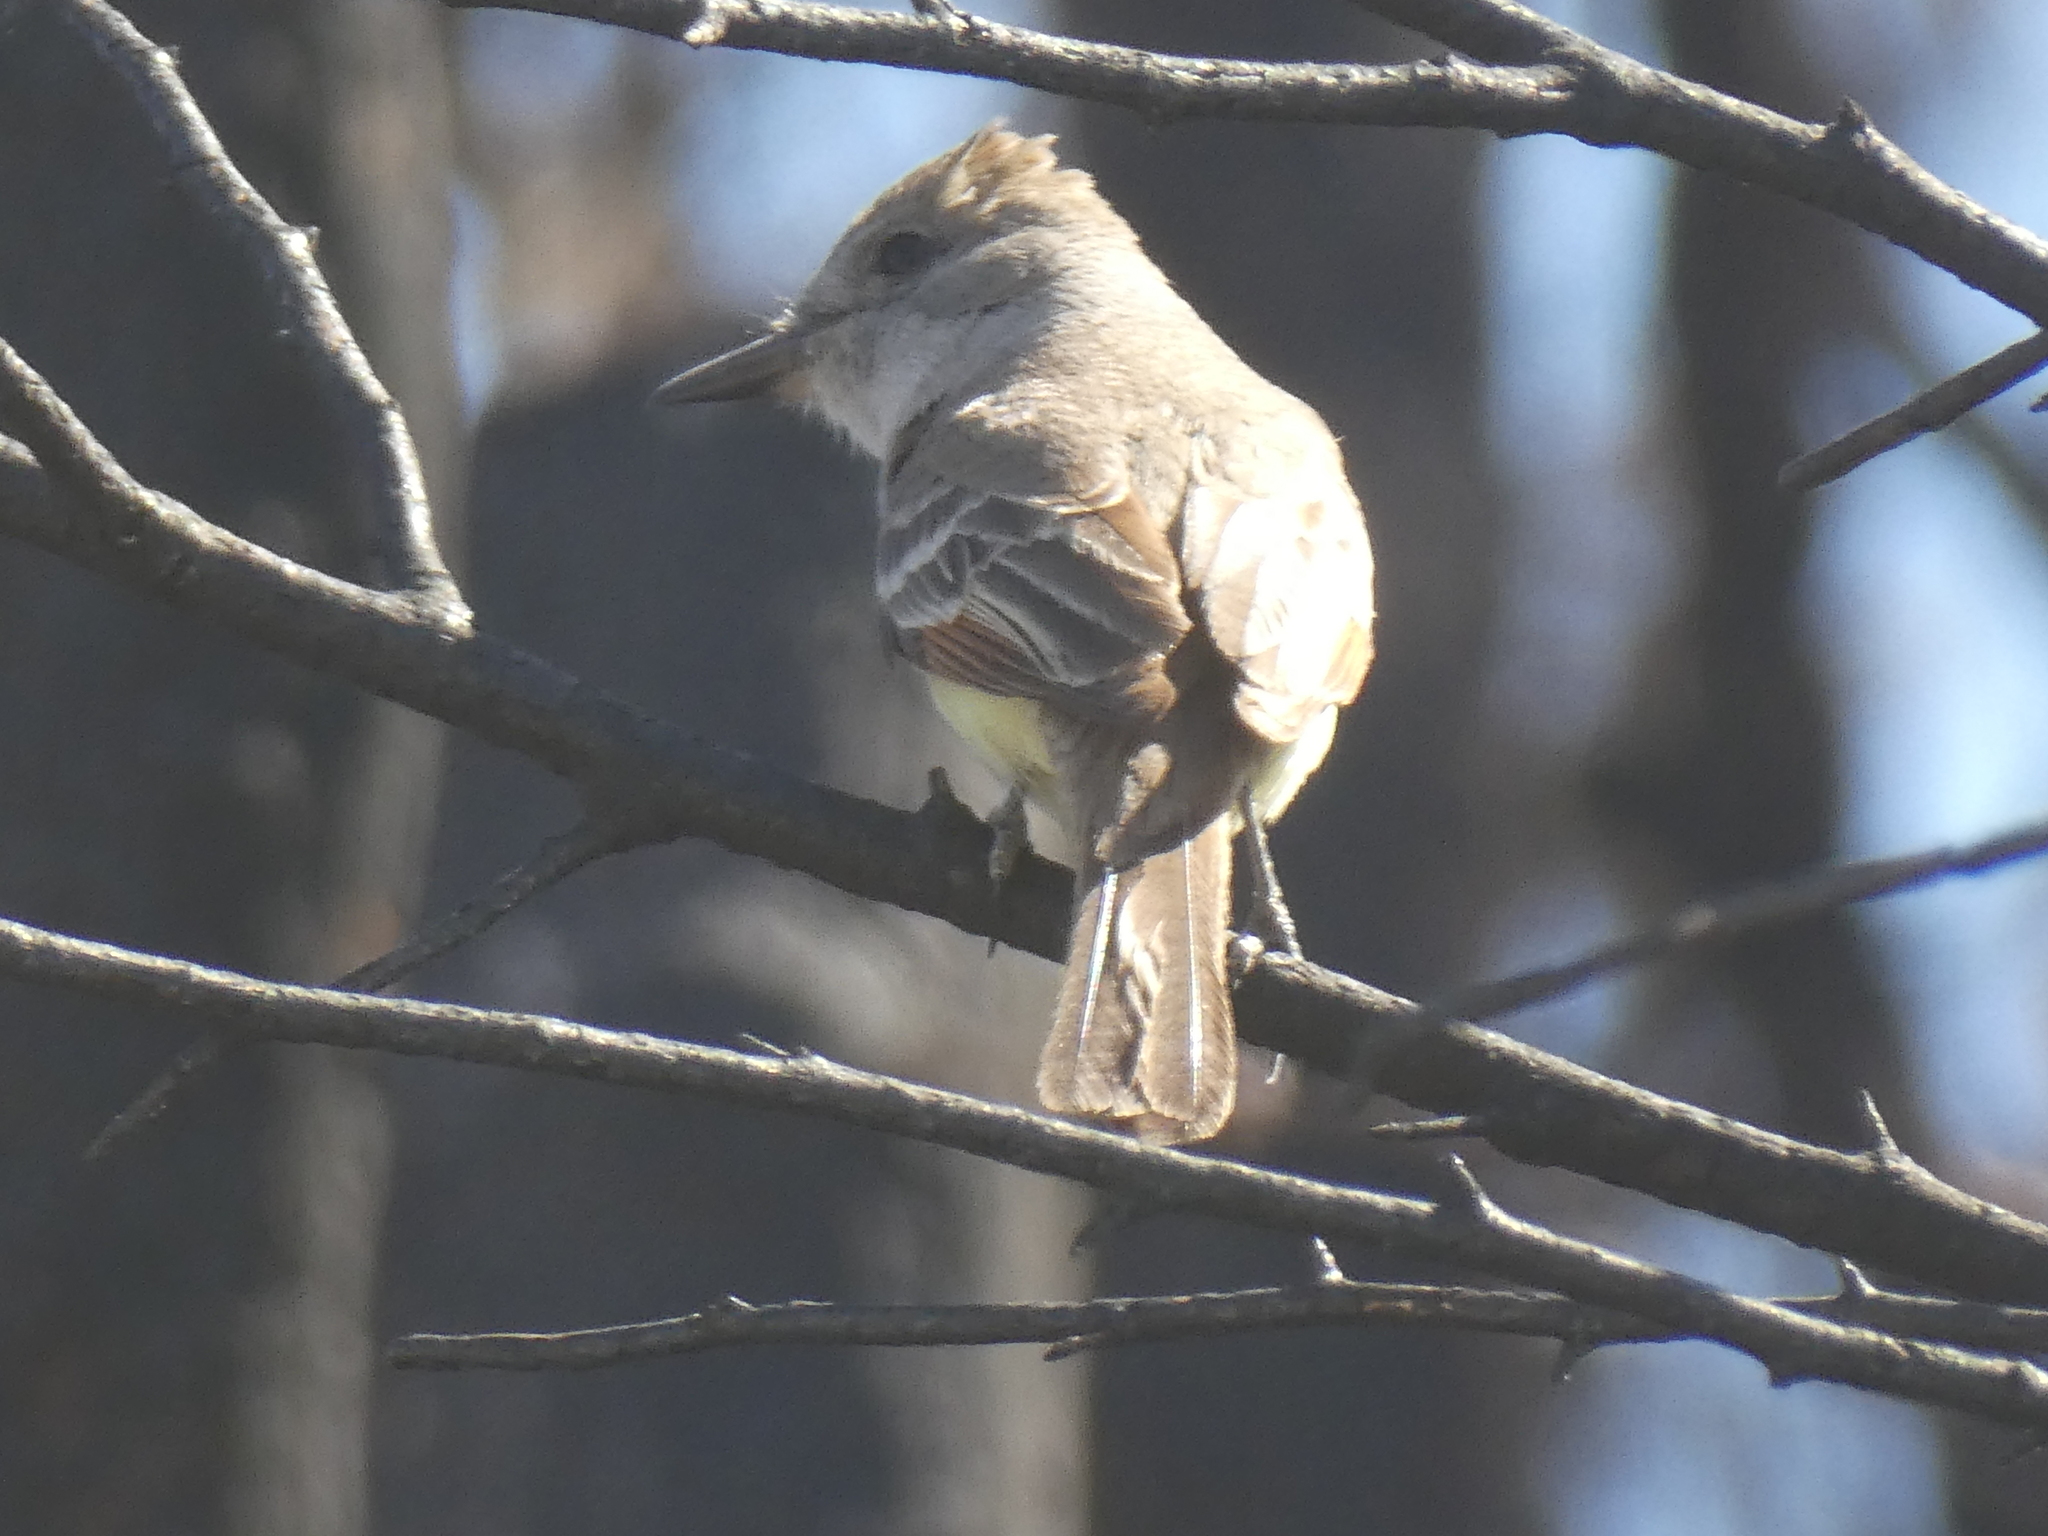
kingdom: Animalia
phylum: Chordata
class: Aves
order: Passeriformes
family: Tyrannidae
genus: Myiarchus
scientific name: Myiarchus cinerascens
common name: Ash-throated flycatcher
